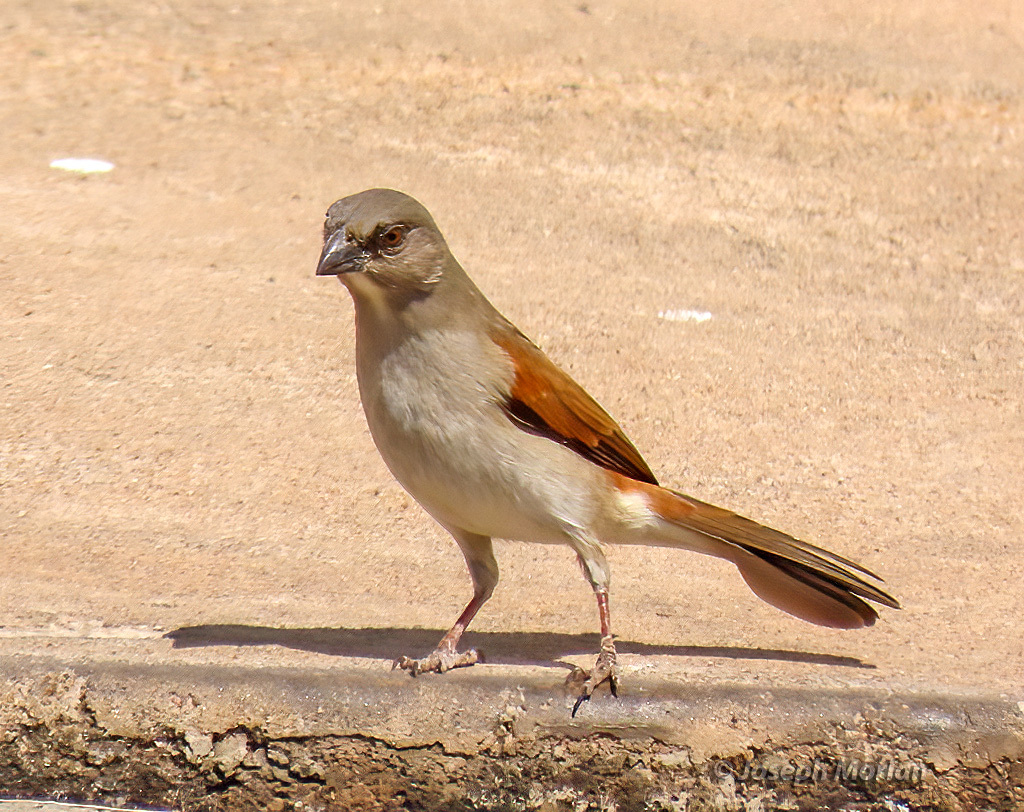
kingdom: Animalia
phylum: Chordata
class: Aves
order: Passeriformes
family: Passeridae
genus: Passer
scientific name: Passer griseus
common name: Northern grey-headed sparrow
